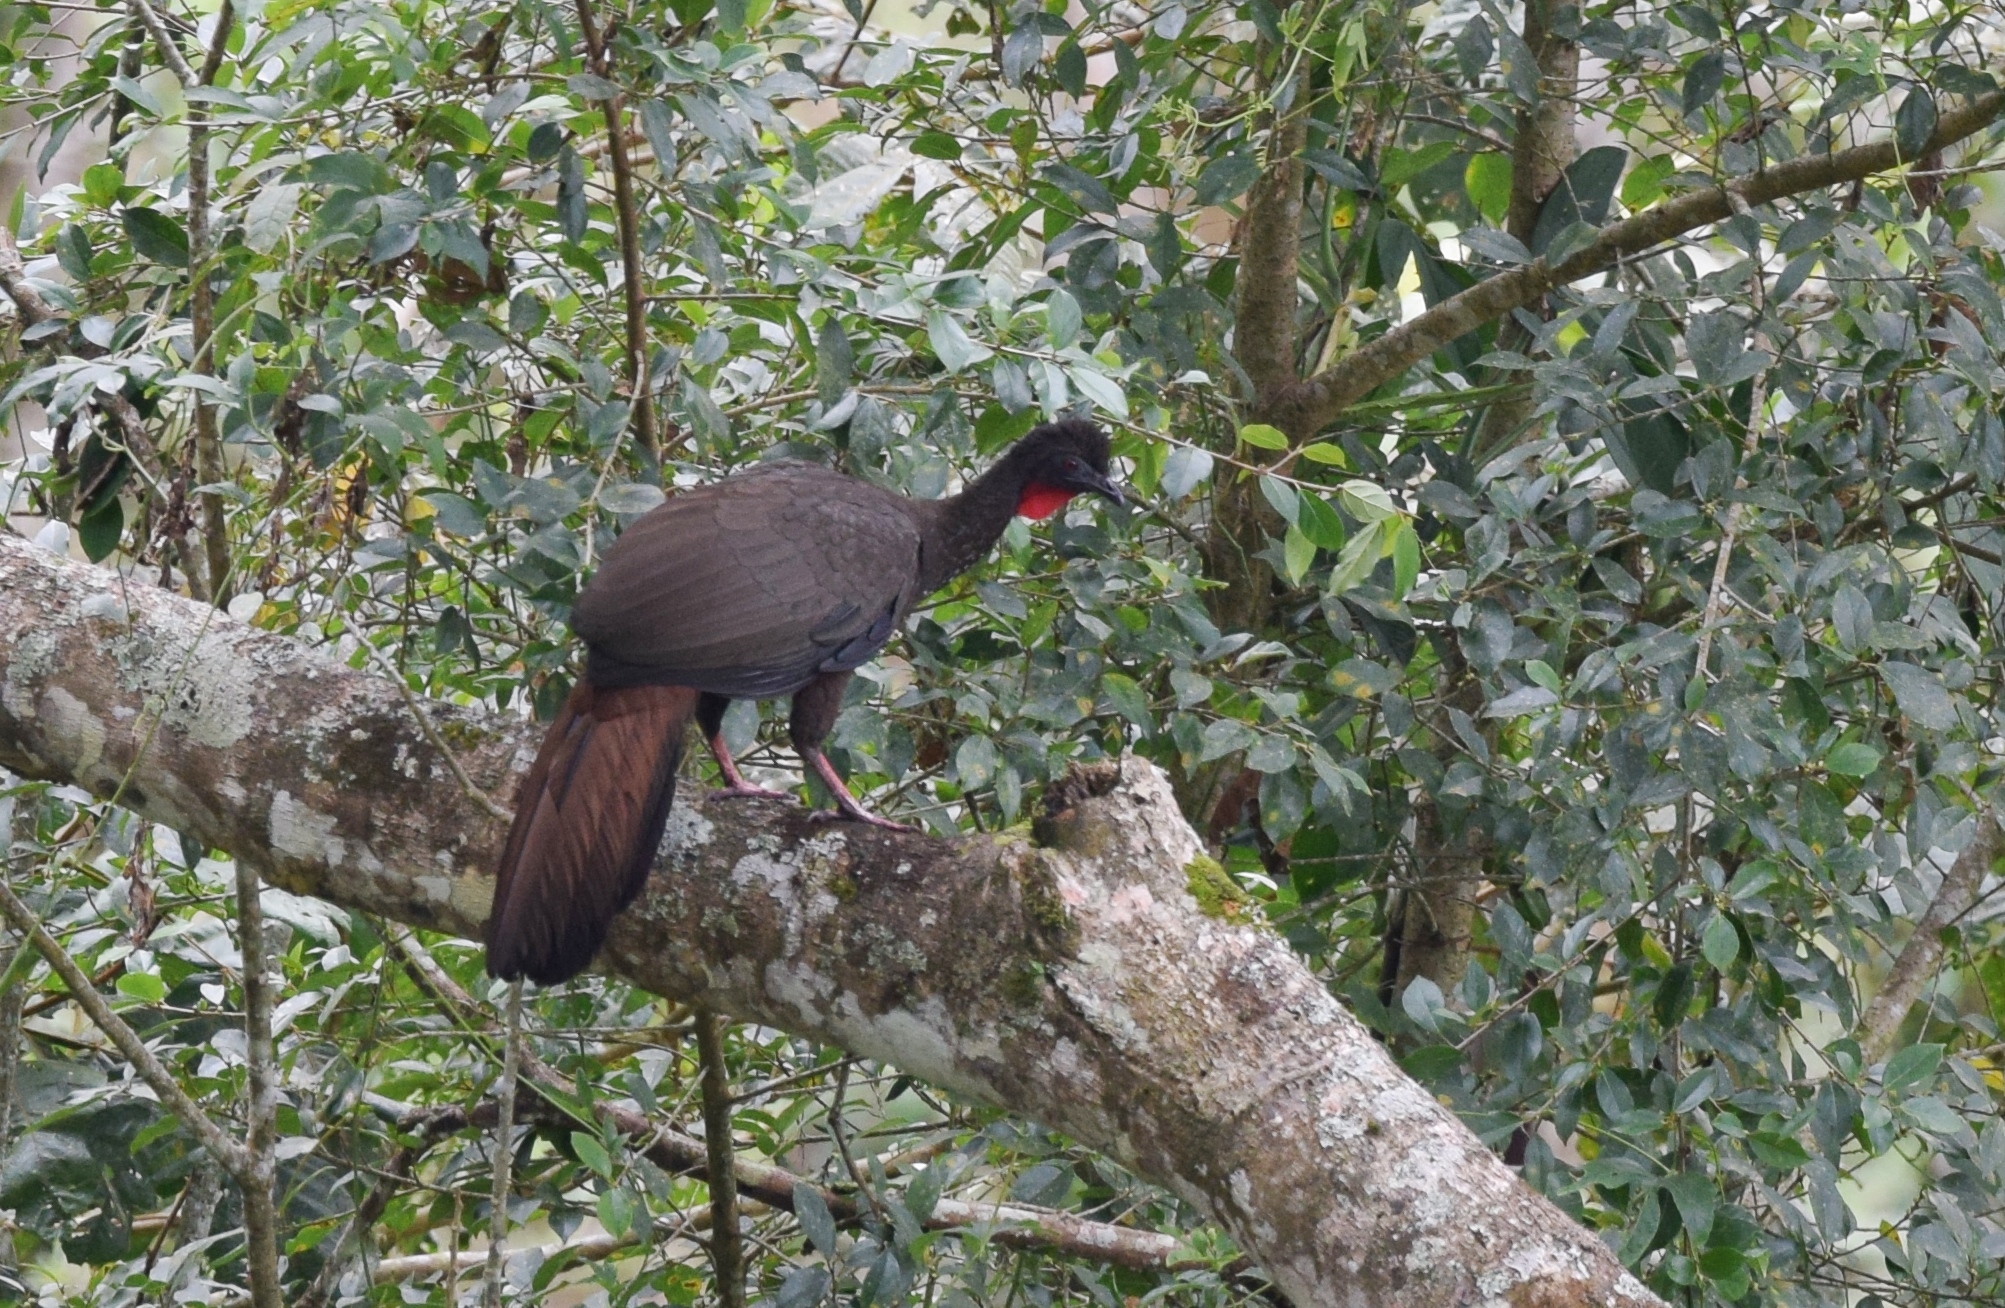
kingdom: Animalia
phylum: Chordata
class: Aves
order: Galliformes
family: Cracidae
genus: Penelope
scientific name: Penelope purpurascens
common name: Crested guan
